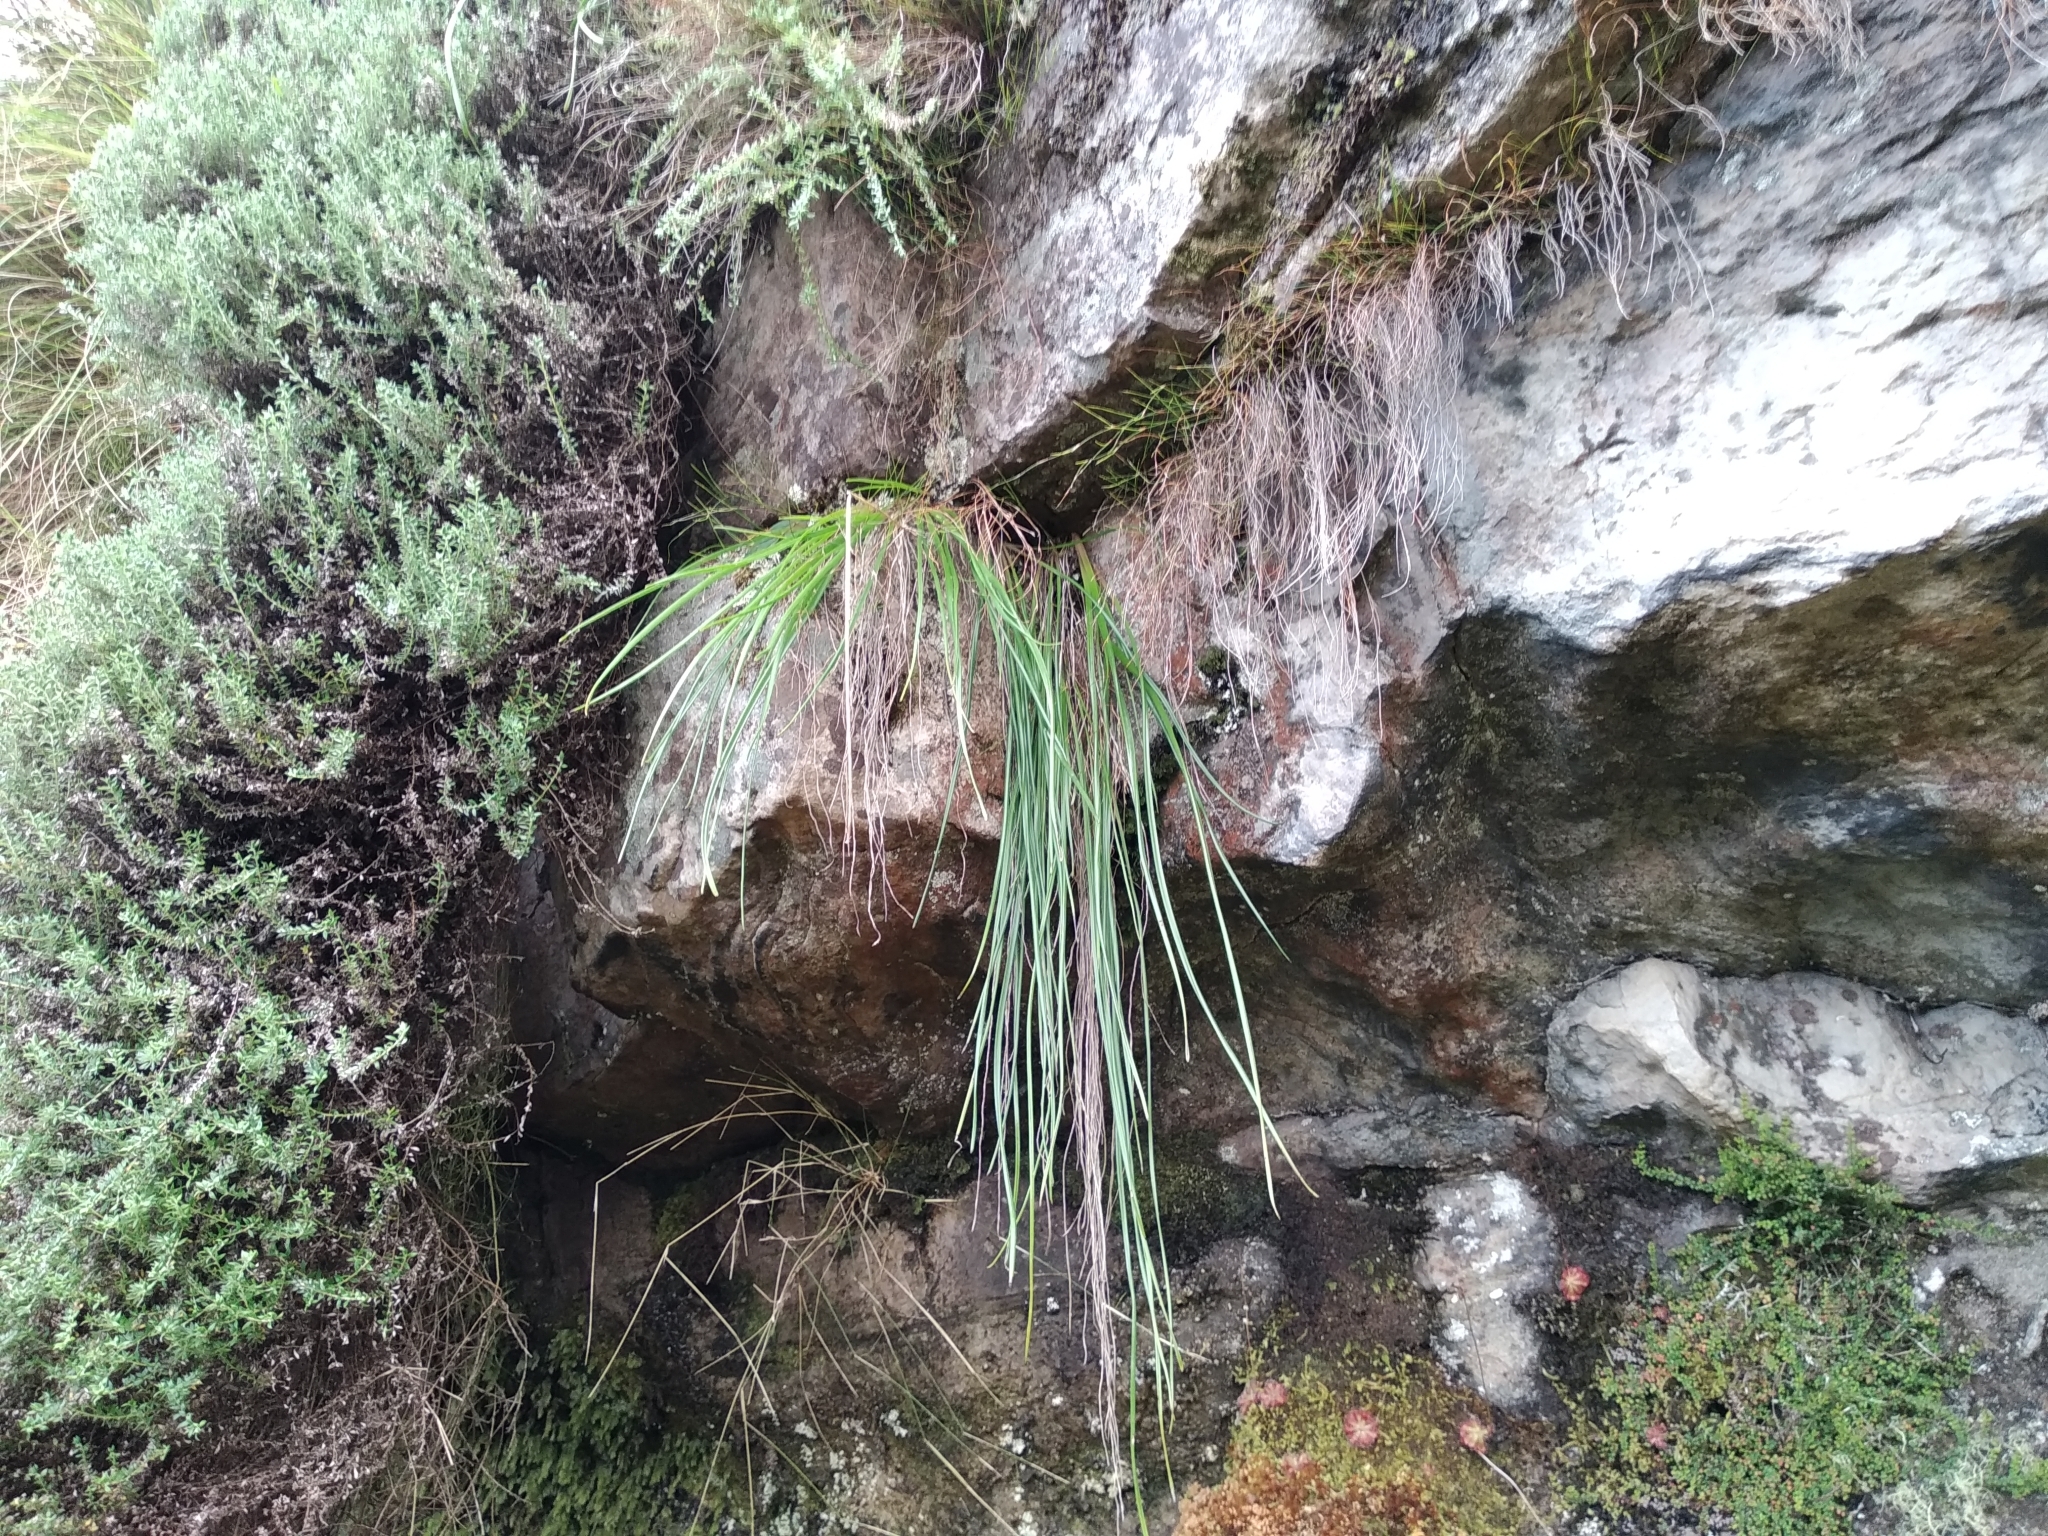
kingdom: Plantae
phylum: Tracheophyta
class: Liliopsida
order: Asparagales
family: Asphodelaceae
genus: Trachyandra
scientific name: Trachyandra tabularis
